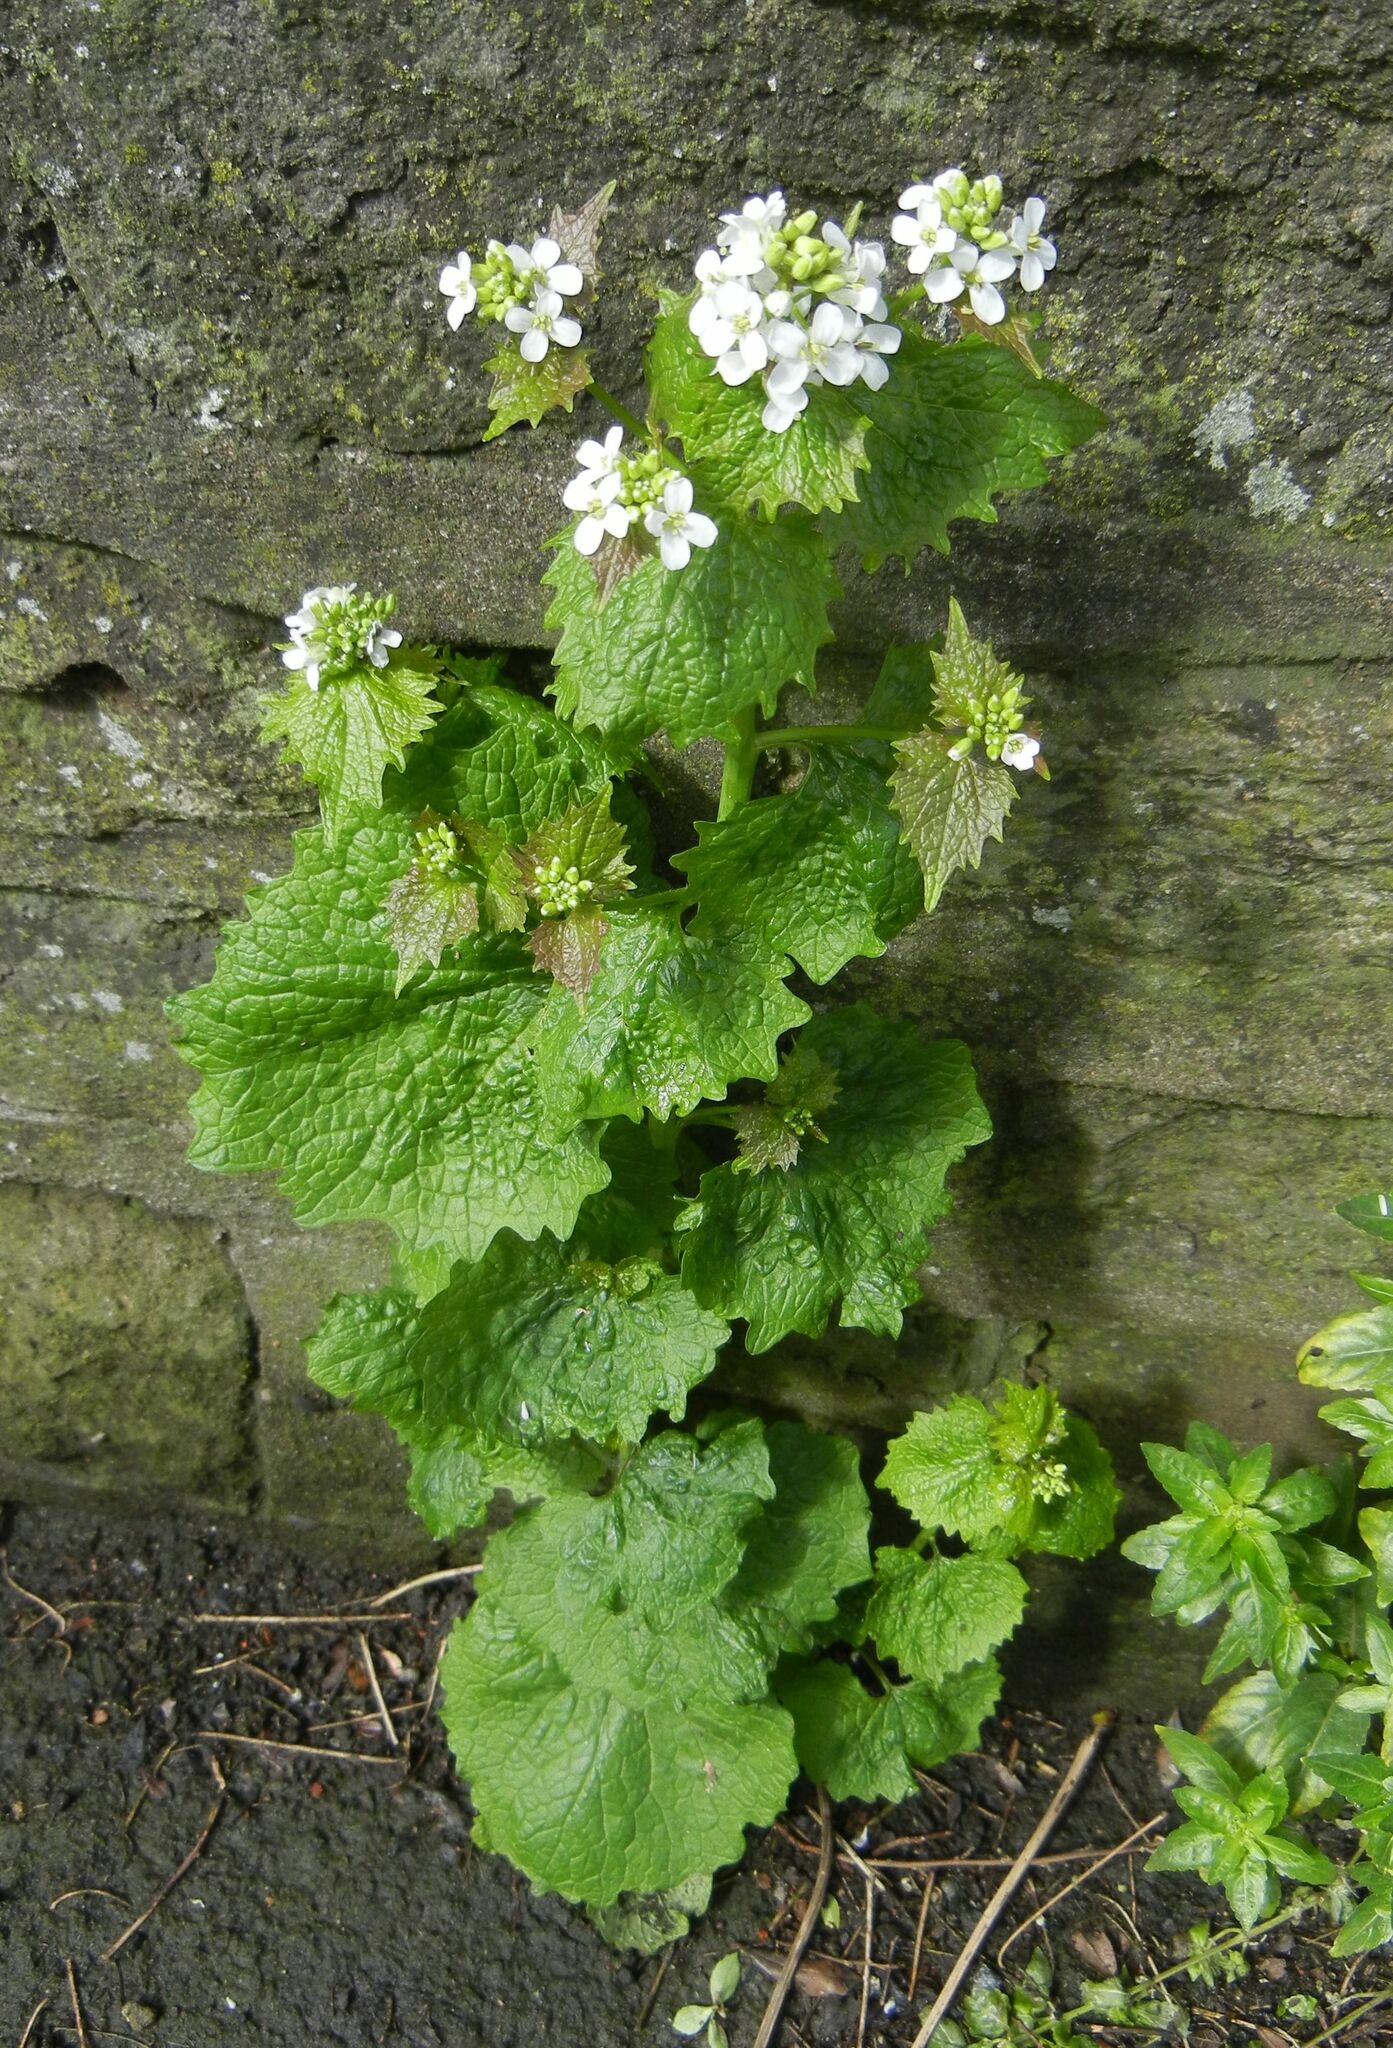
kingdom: Plantae
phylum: Tracheophyta
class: Magnoliopsida
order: Brassicales
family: Brassicaceae
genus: Alliaria
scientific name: Alliaria petiolata
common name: Garlic mustard
